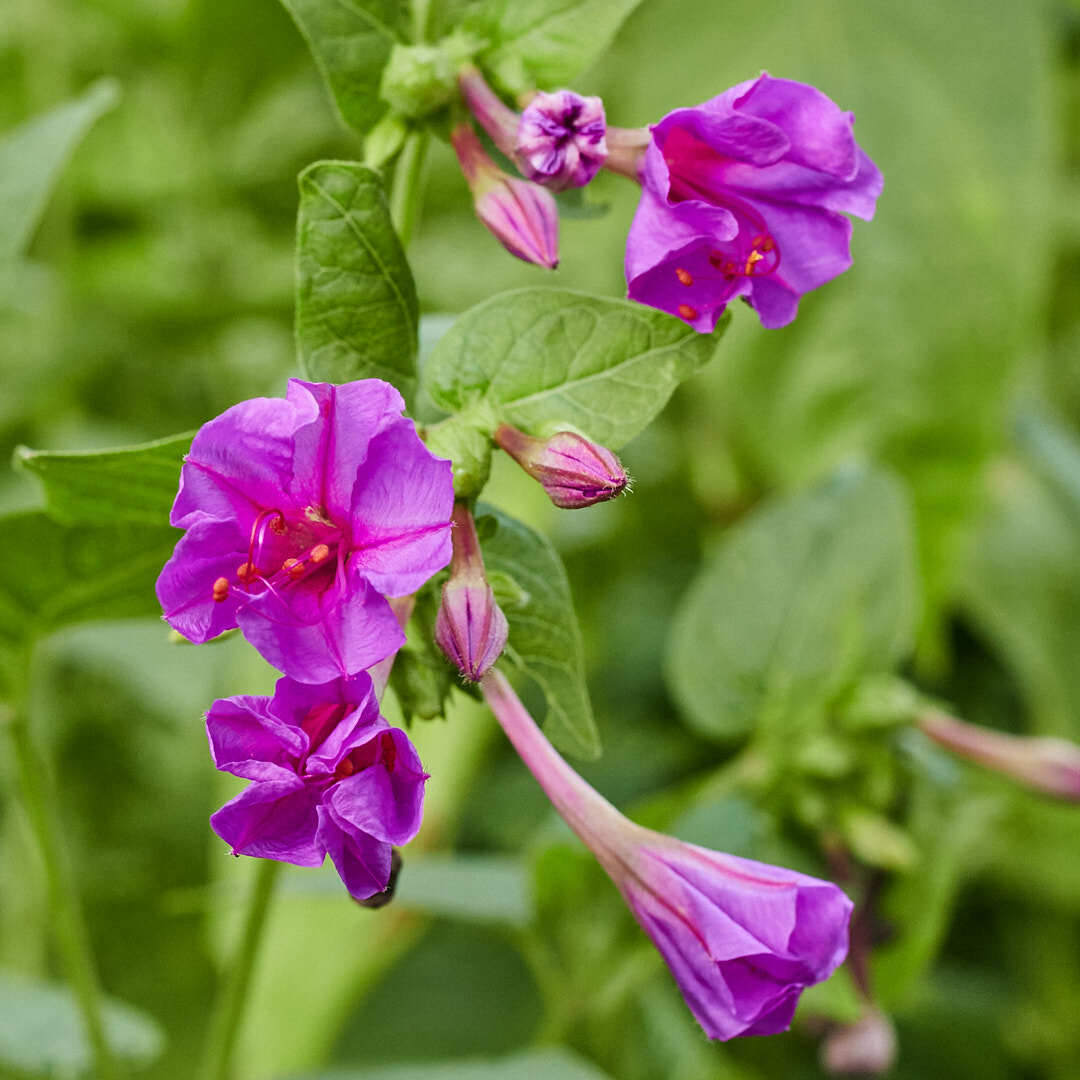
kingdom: Plantae
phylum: Tracheophyta
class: Magnoliopsida
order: Caryophyllales
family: Nyctaginaceae
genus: Mirabilis
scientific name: Mirabilis jalapa
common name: Marvel-of-peru
